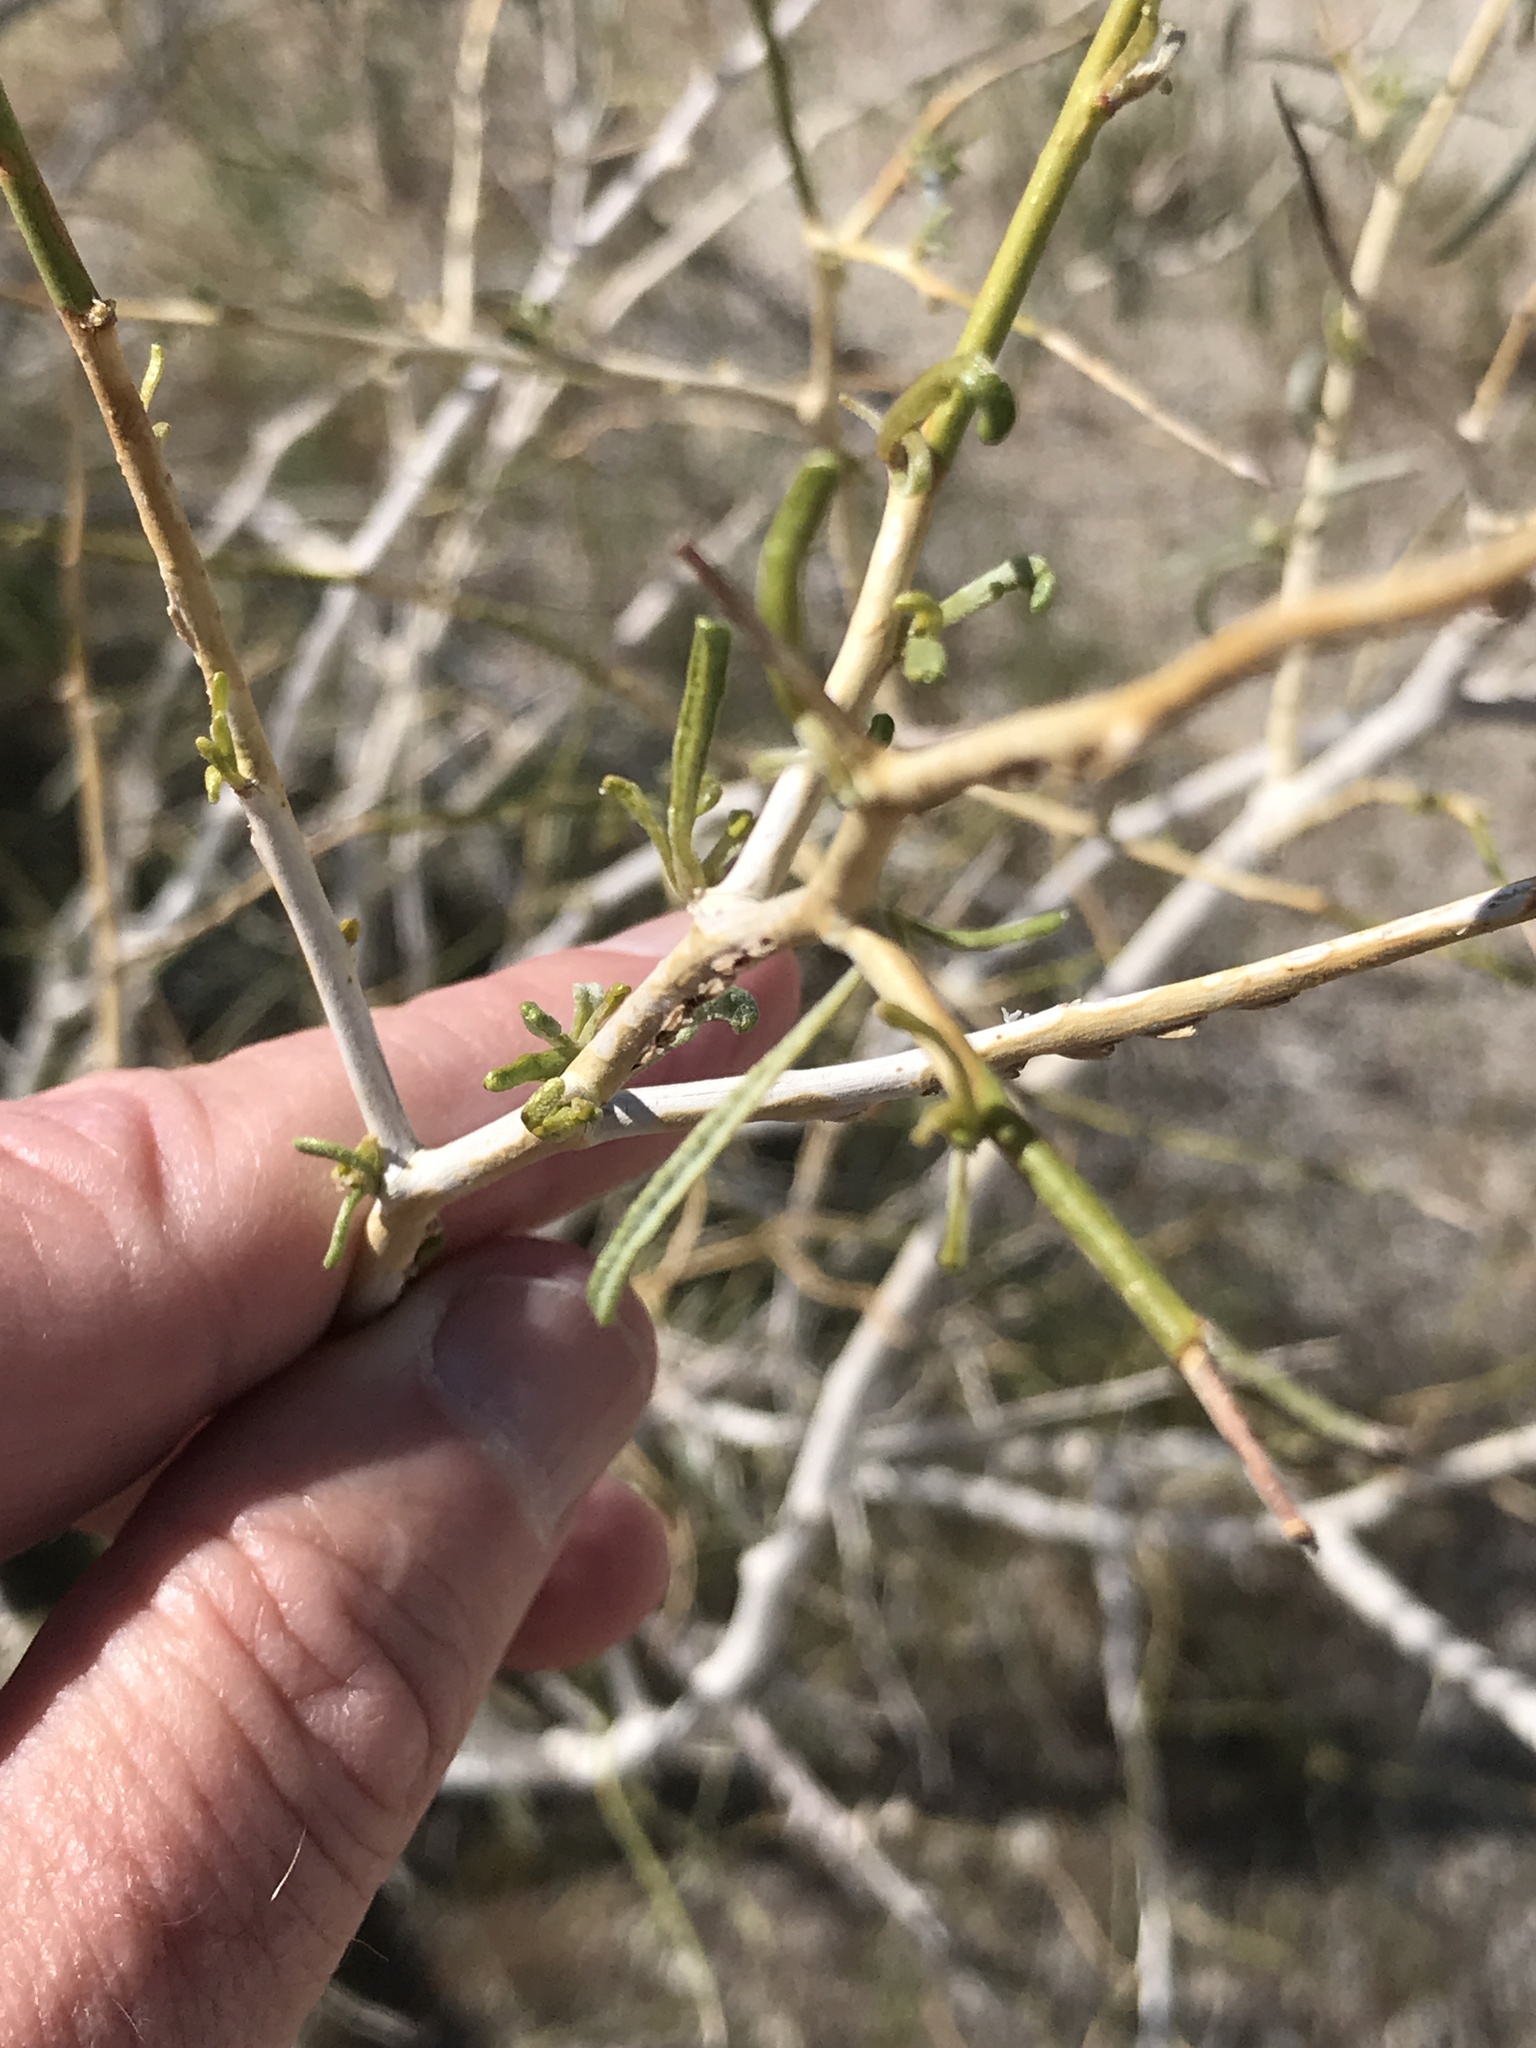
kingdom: Plantae
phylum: Tracheophyta
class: Magnoliopsida
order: Fabales
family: Fabaceae
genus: Psorothamnus
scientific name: Psorothamnus schottii
